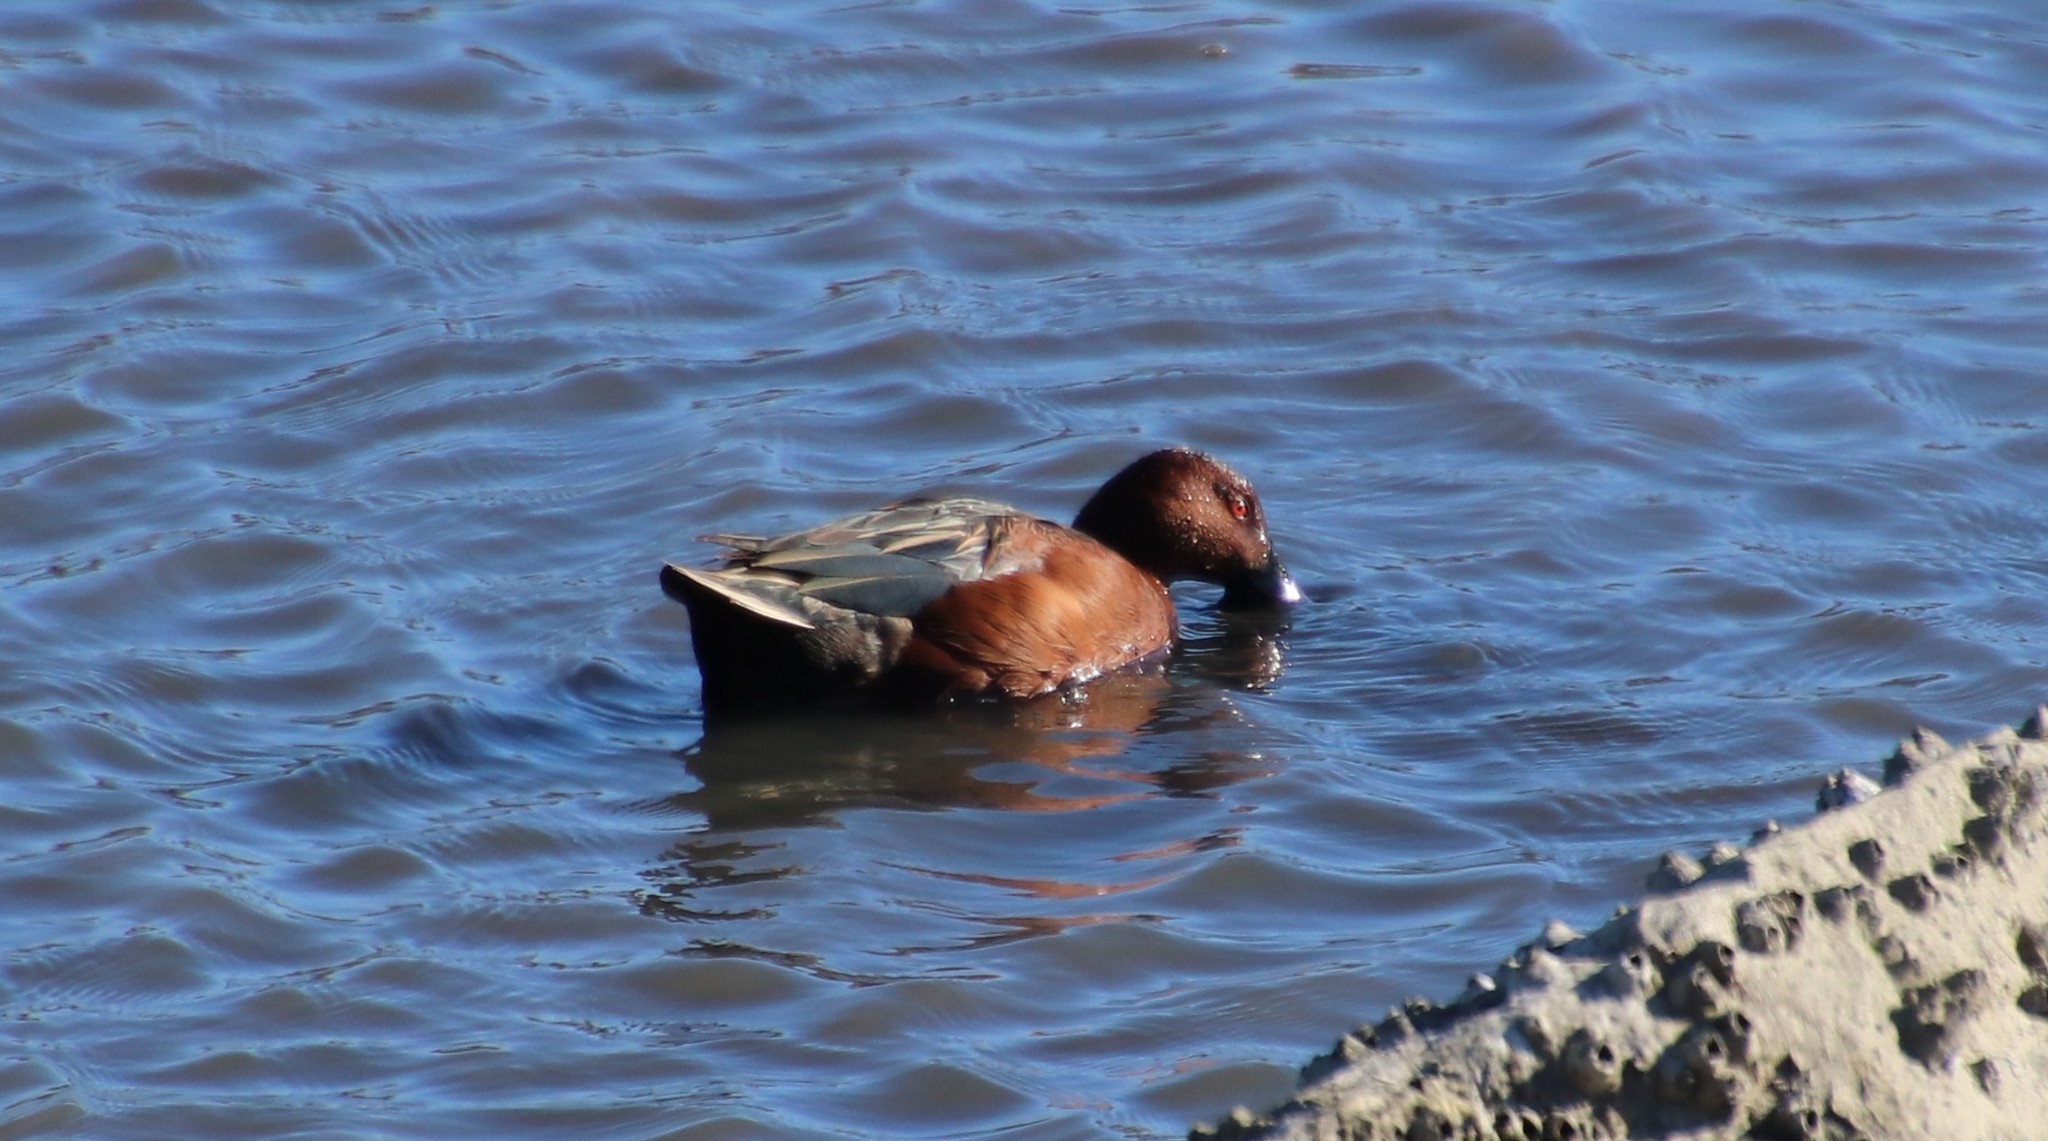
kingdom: Animalia
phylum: Chordata
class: Aves
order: Anseriformes
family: Anatidae
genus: Spatula
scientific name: Spatula cyanoptera
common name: Cinnamon teal
